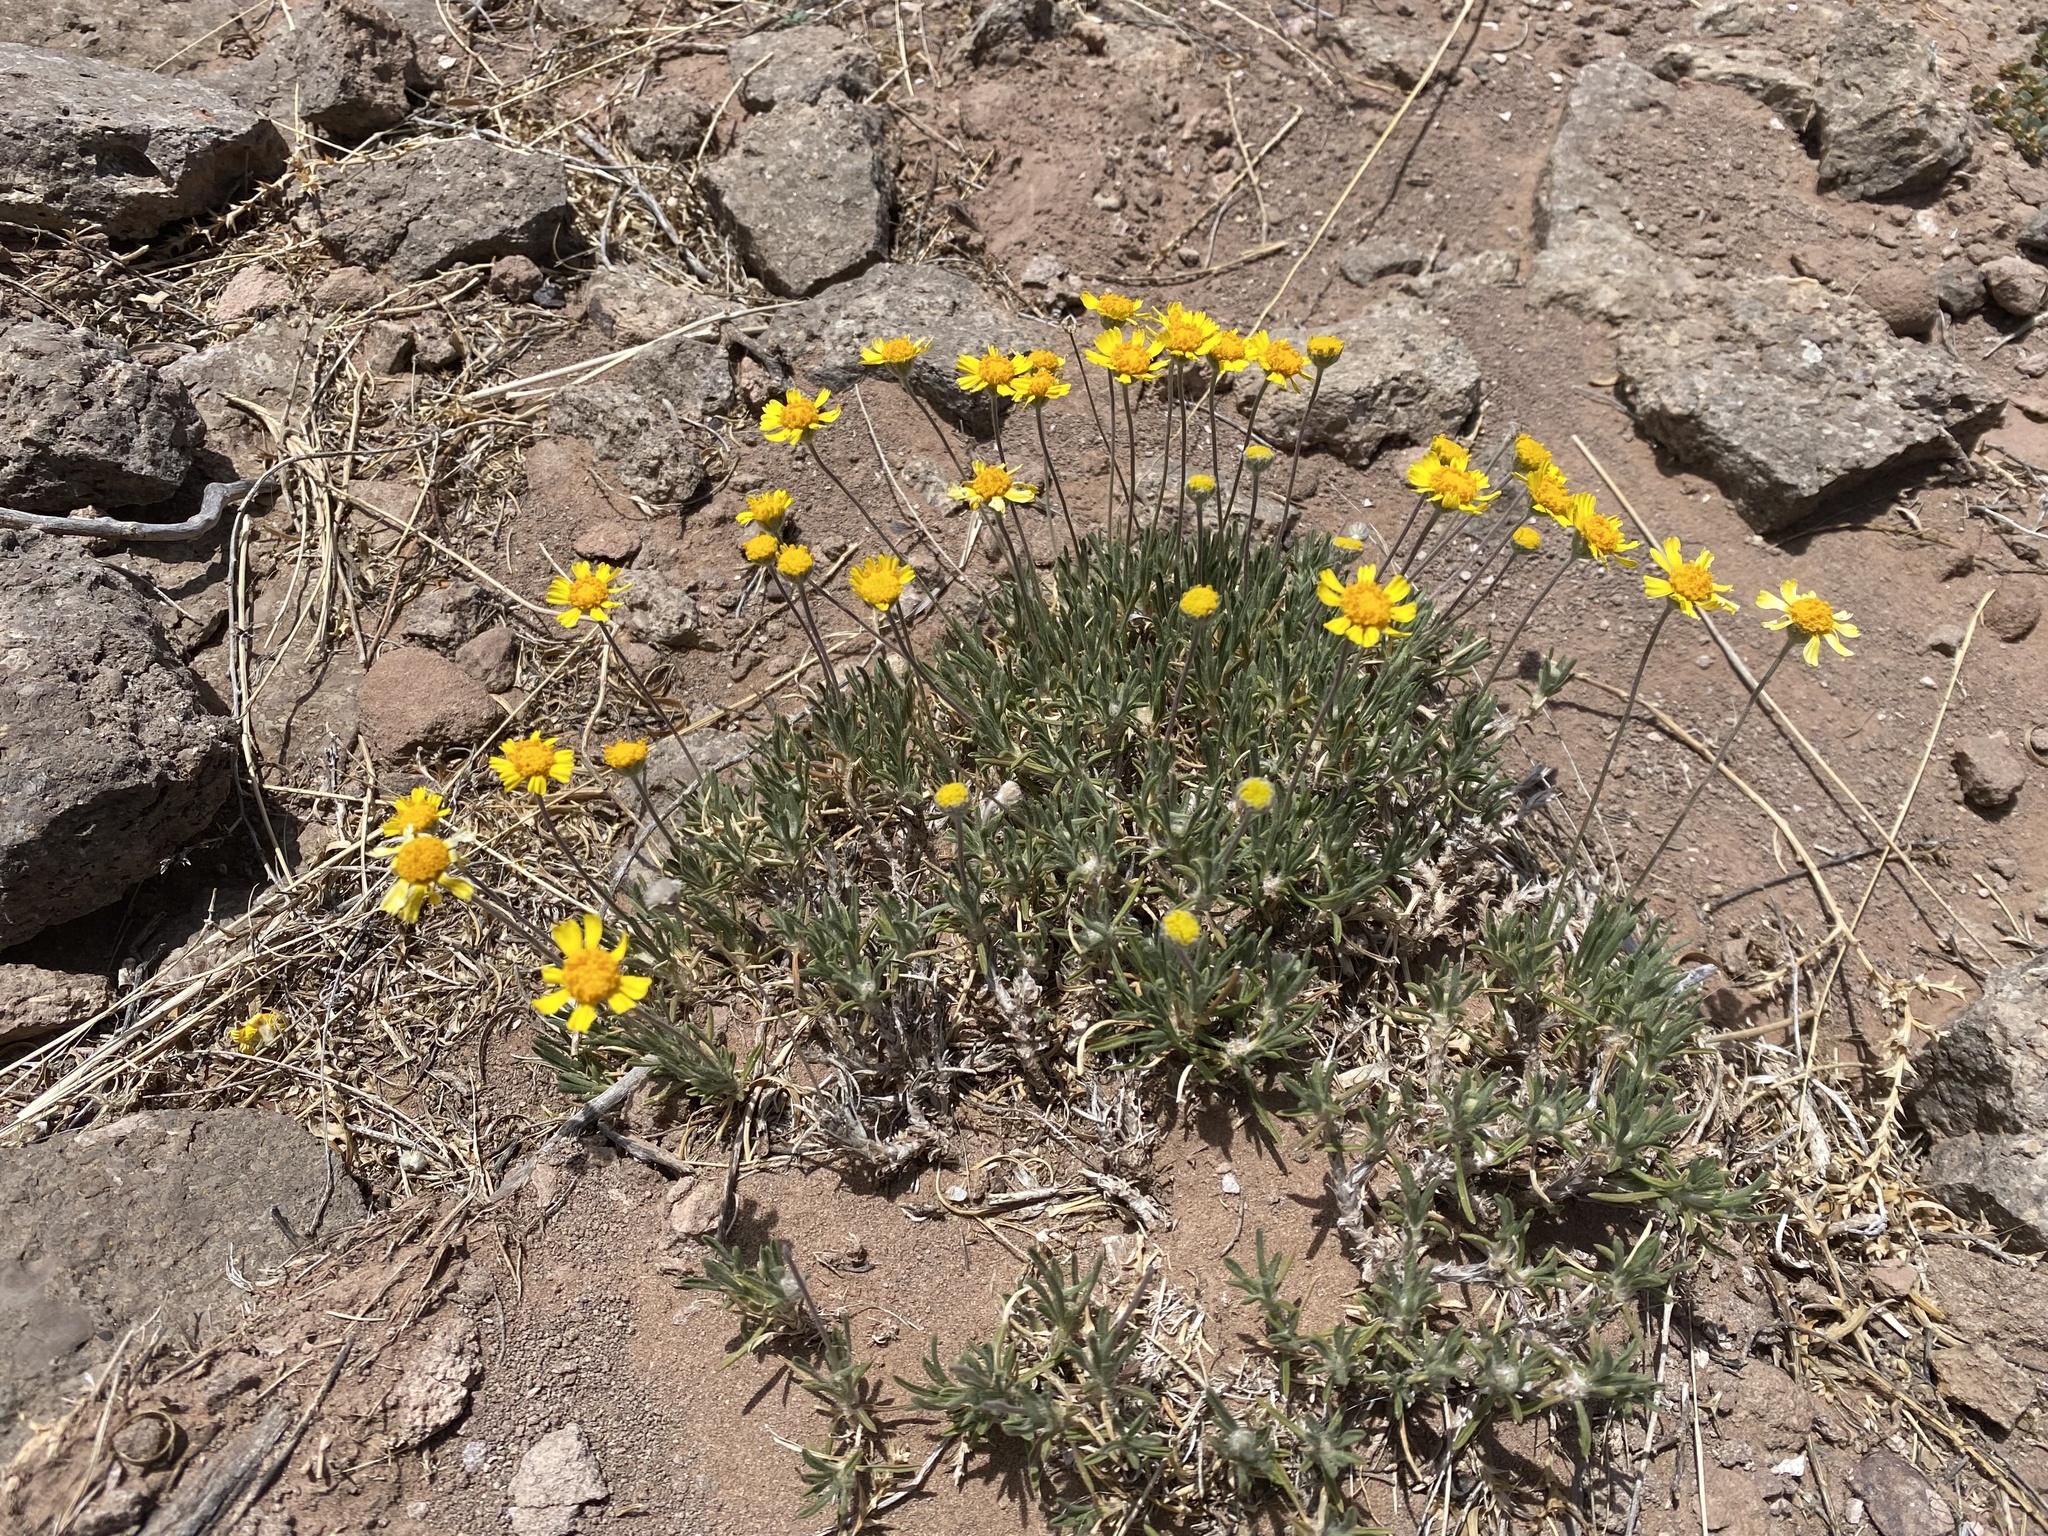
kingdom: Plantae
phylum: Tracheophyta
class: Magnoliopsida
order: Asterales
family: Asteraceae
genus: Tetraneuris
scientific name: Tetraneuris scaposa
